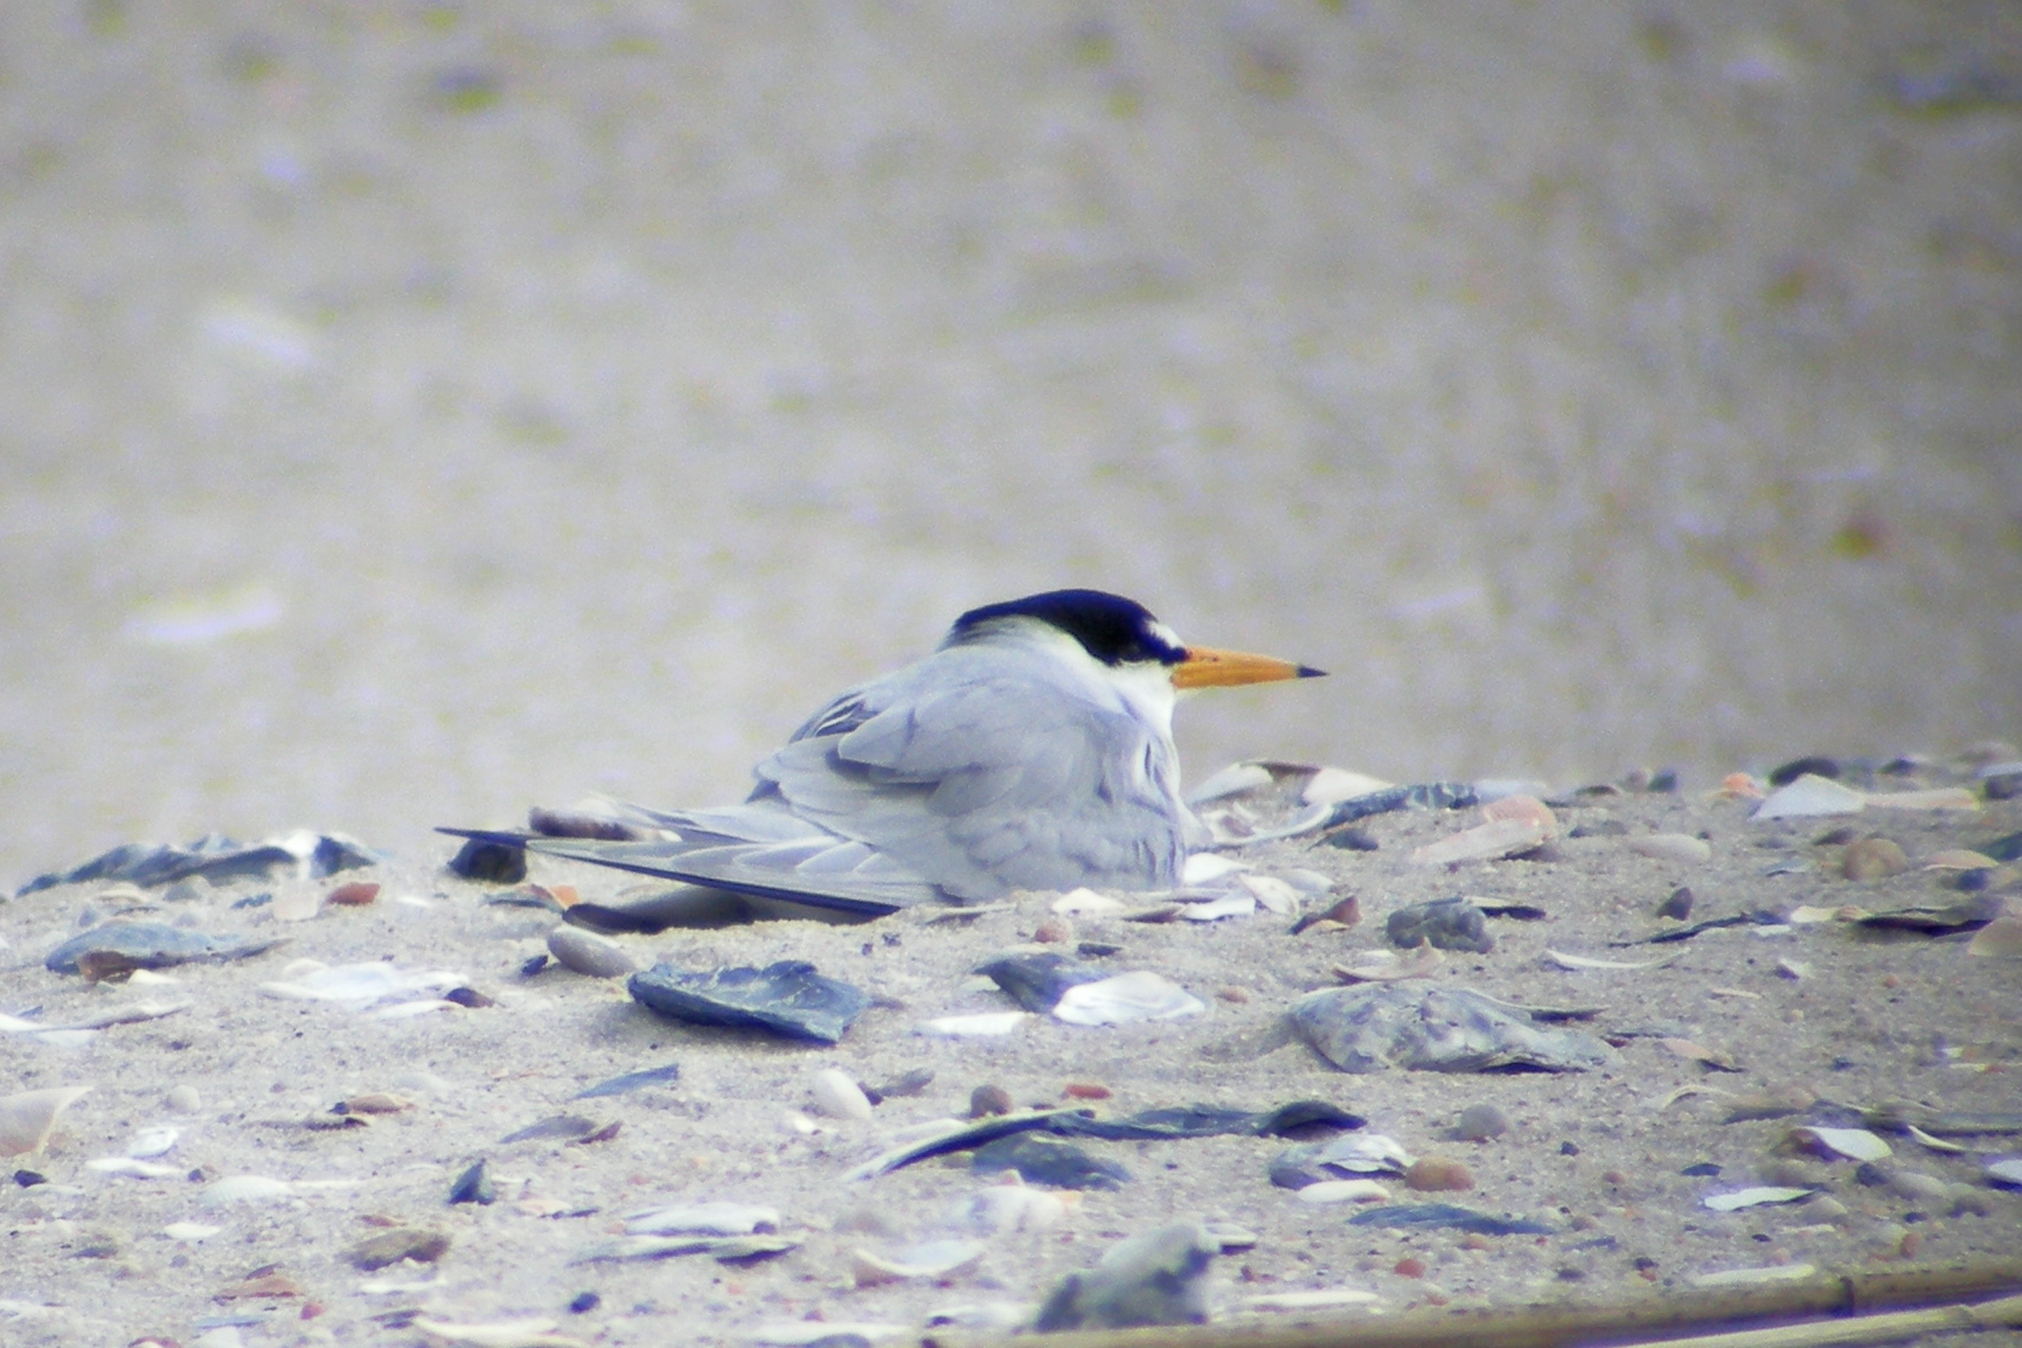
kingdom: Animalia
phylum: Chordata
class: Aves
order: Charadriiformes
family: Laridae
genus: Sternula
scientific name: Sternula antillarum
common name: Least tern
